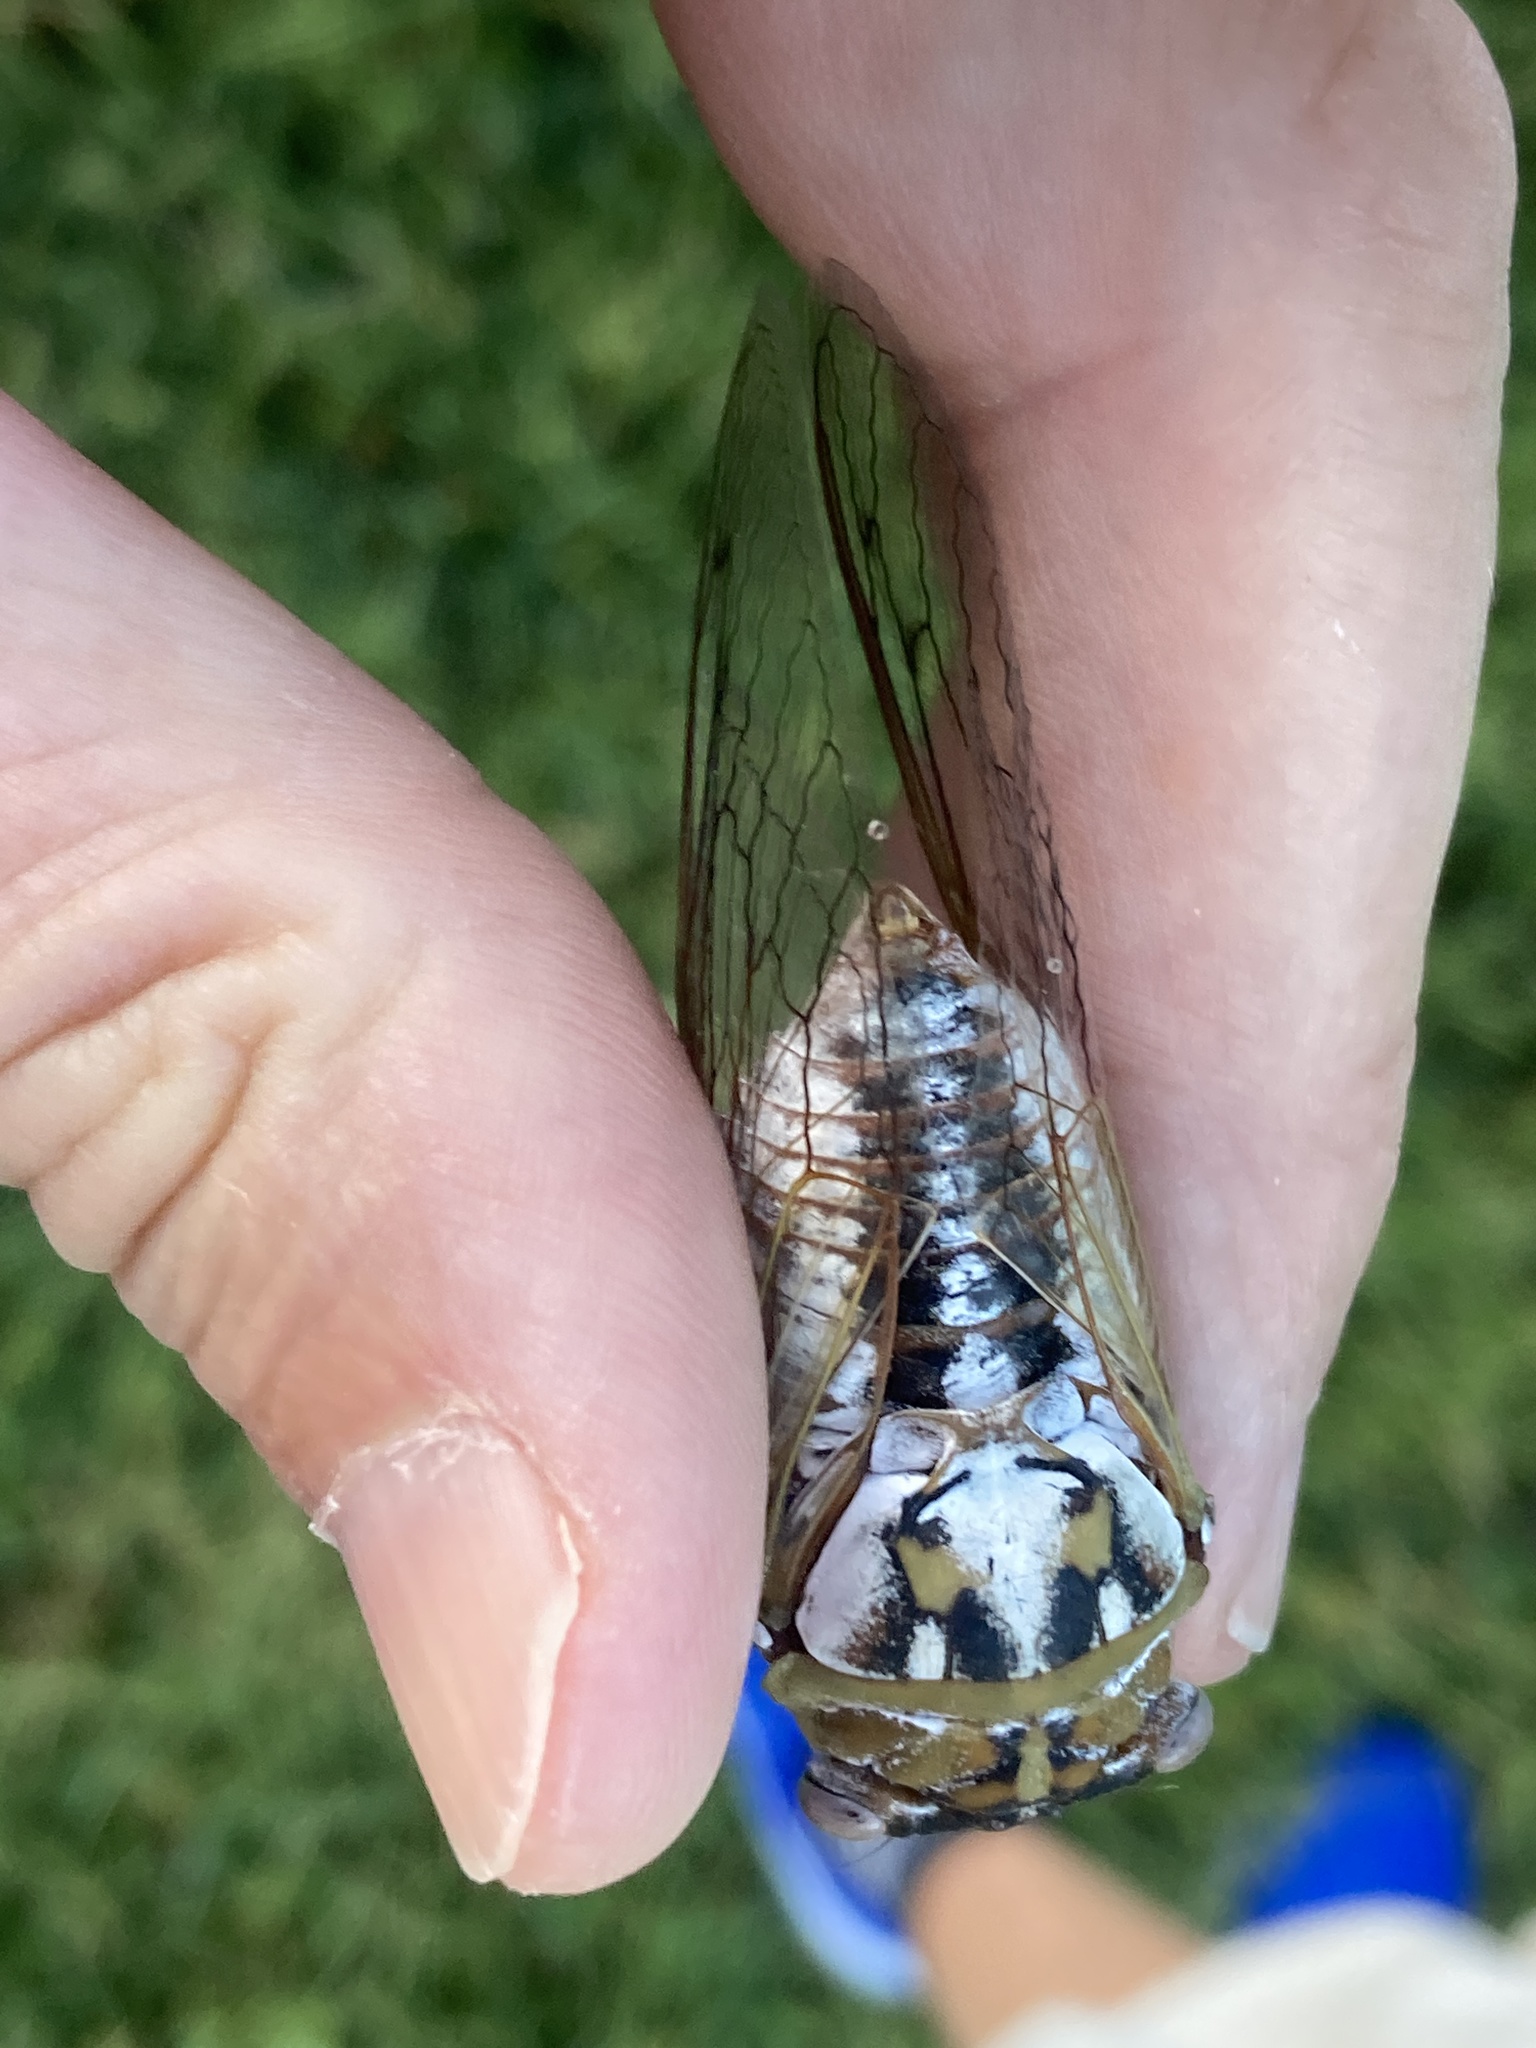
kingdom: Animalia
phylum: Arthropoda
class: Insecta
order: Hemiptera
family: Cicadidae
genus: Megatibicen
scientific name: Megatibicen dealbatus
